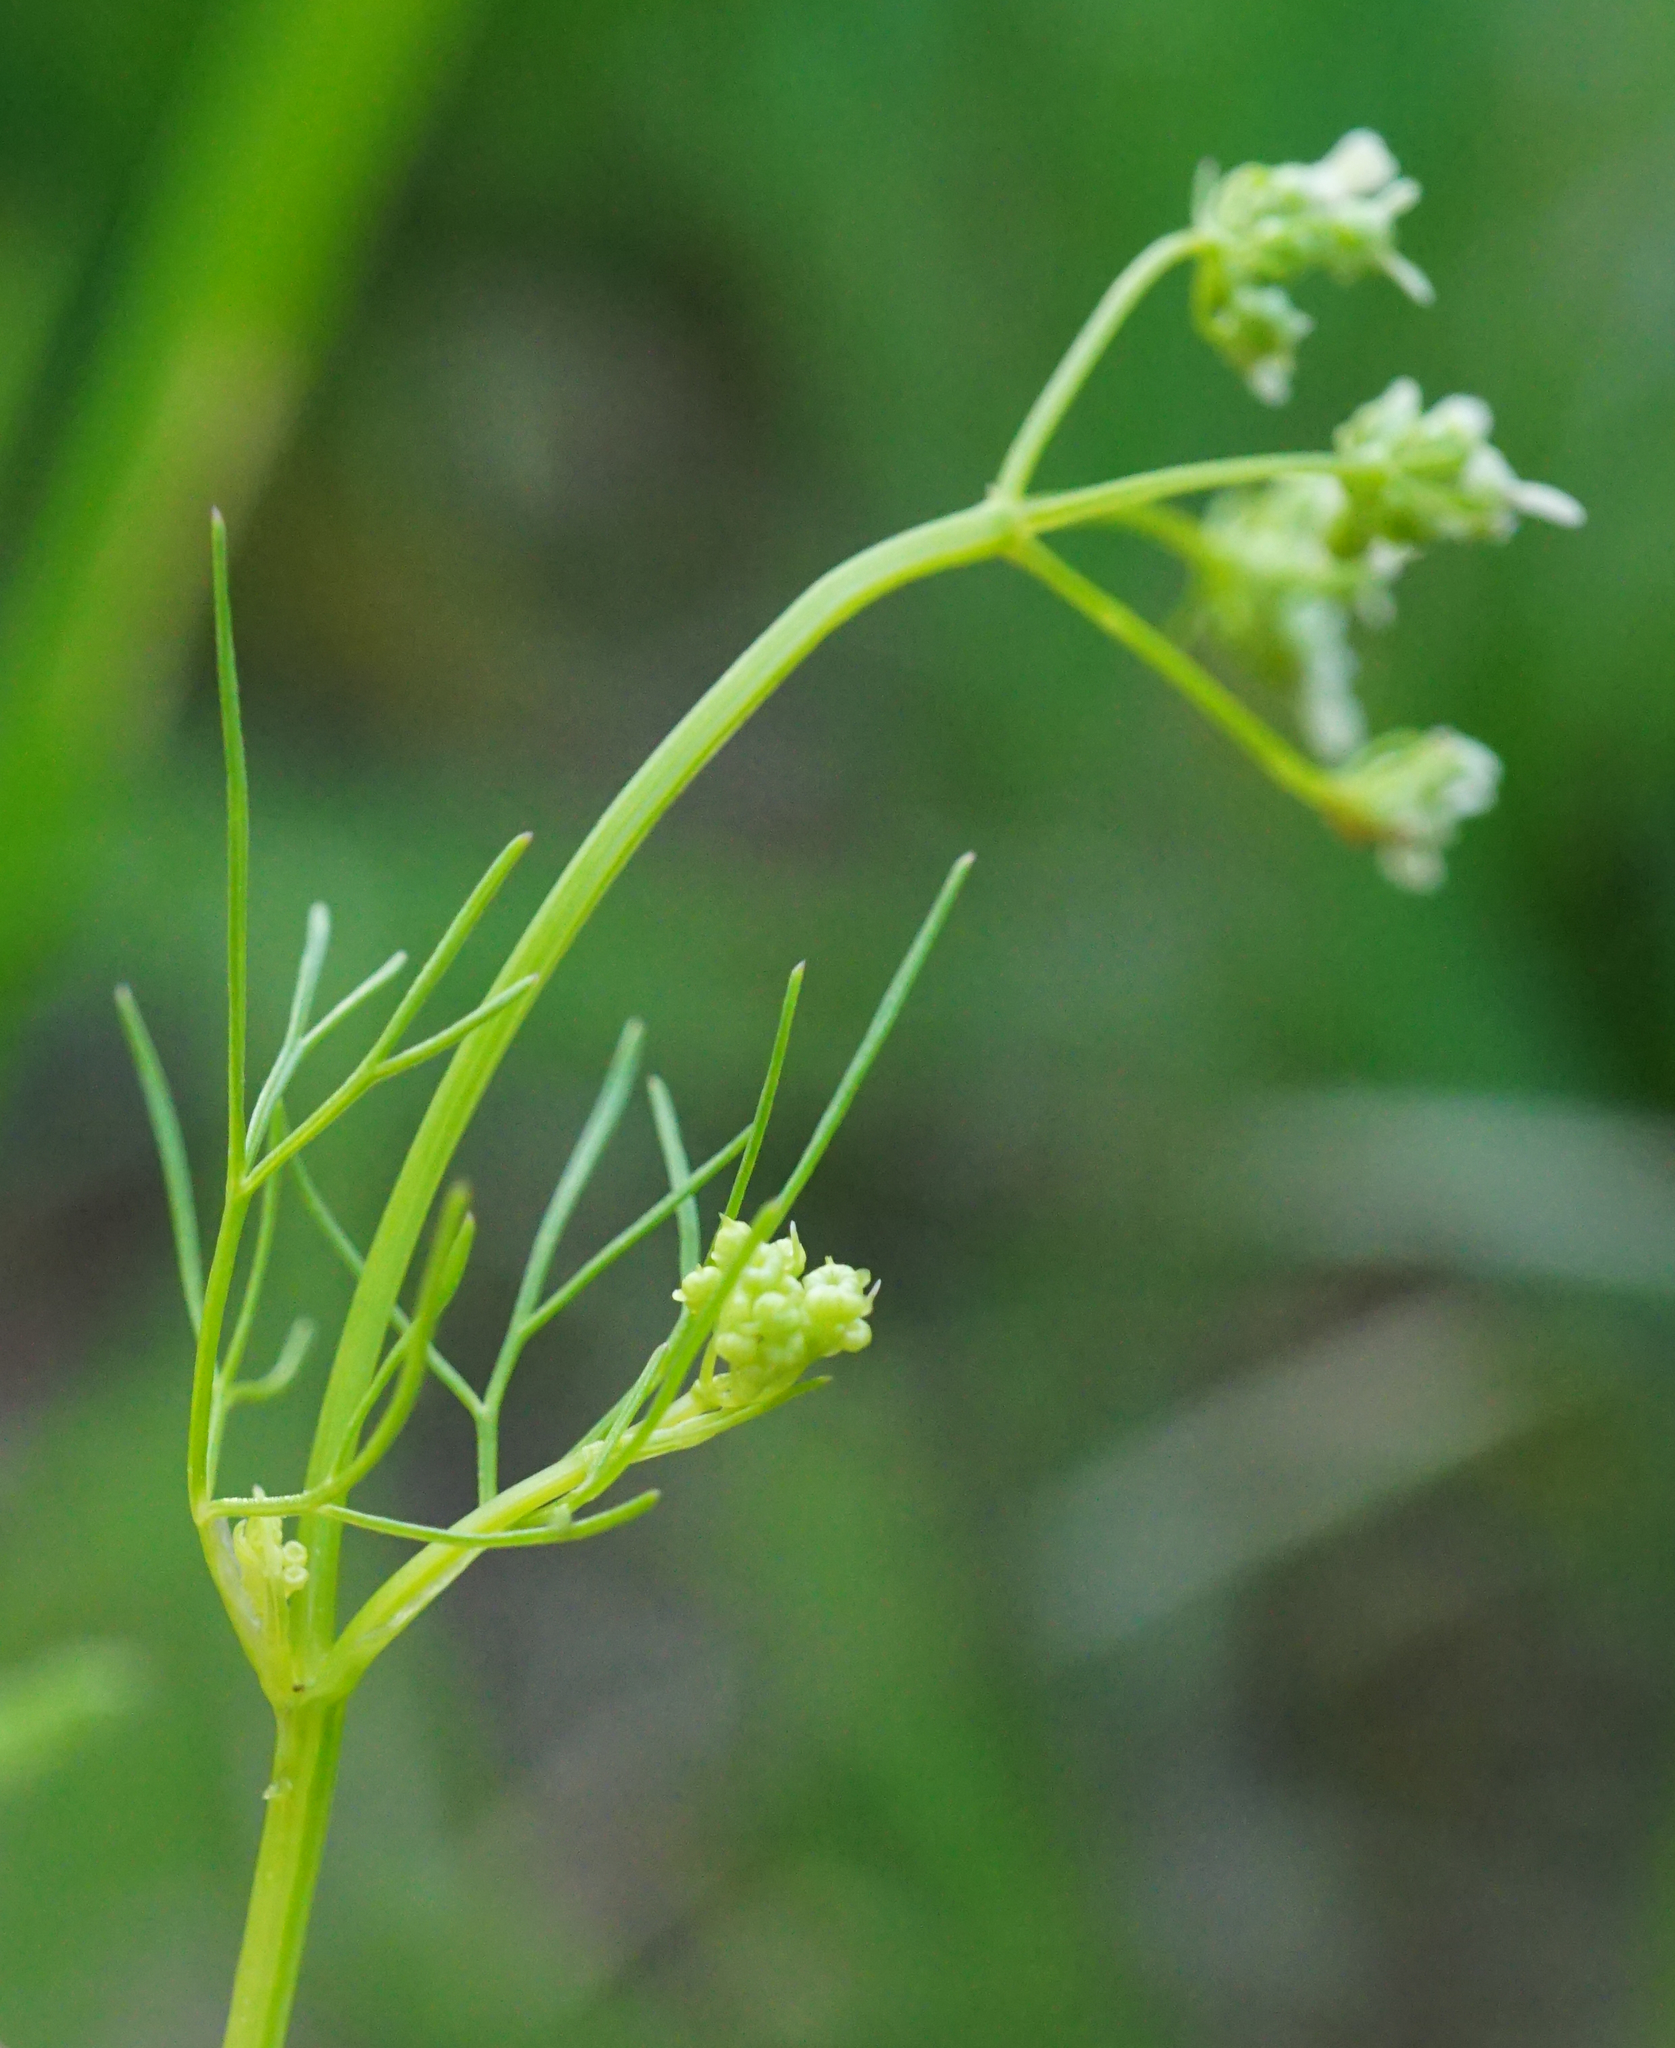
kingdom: Plantae
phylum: Tracheophyta
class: Magnoliopsida
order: Apiales
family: Apiaceae
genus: Bifora
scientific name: Bifora radians
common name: Wild bishop
